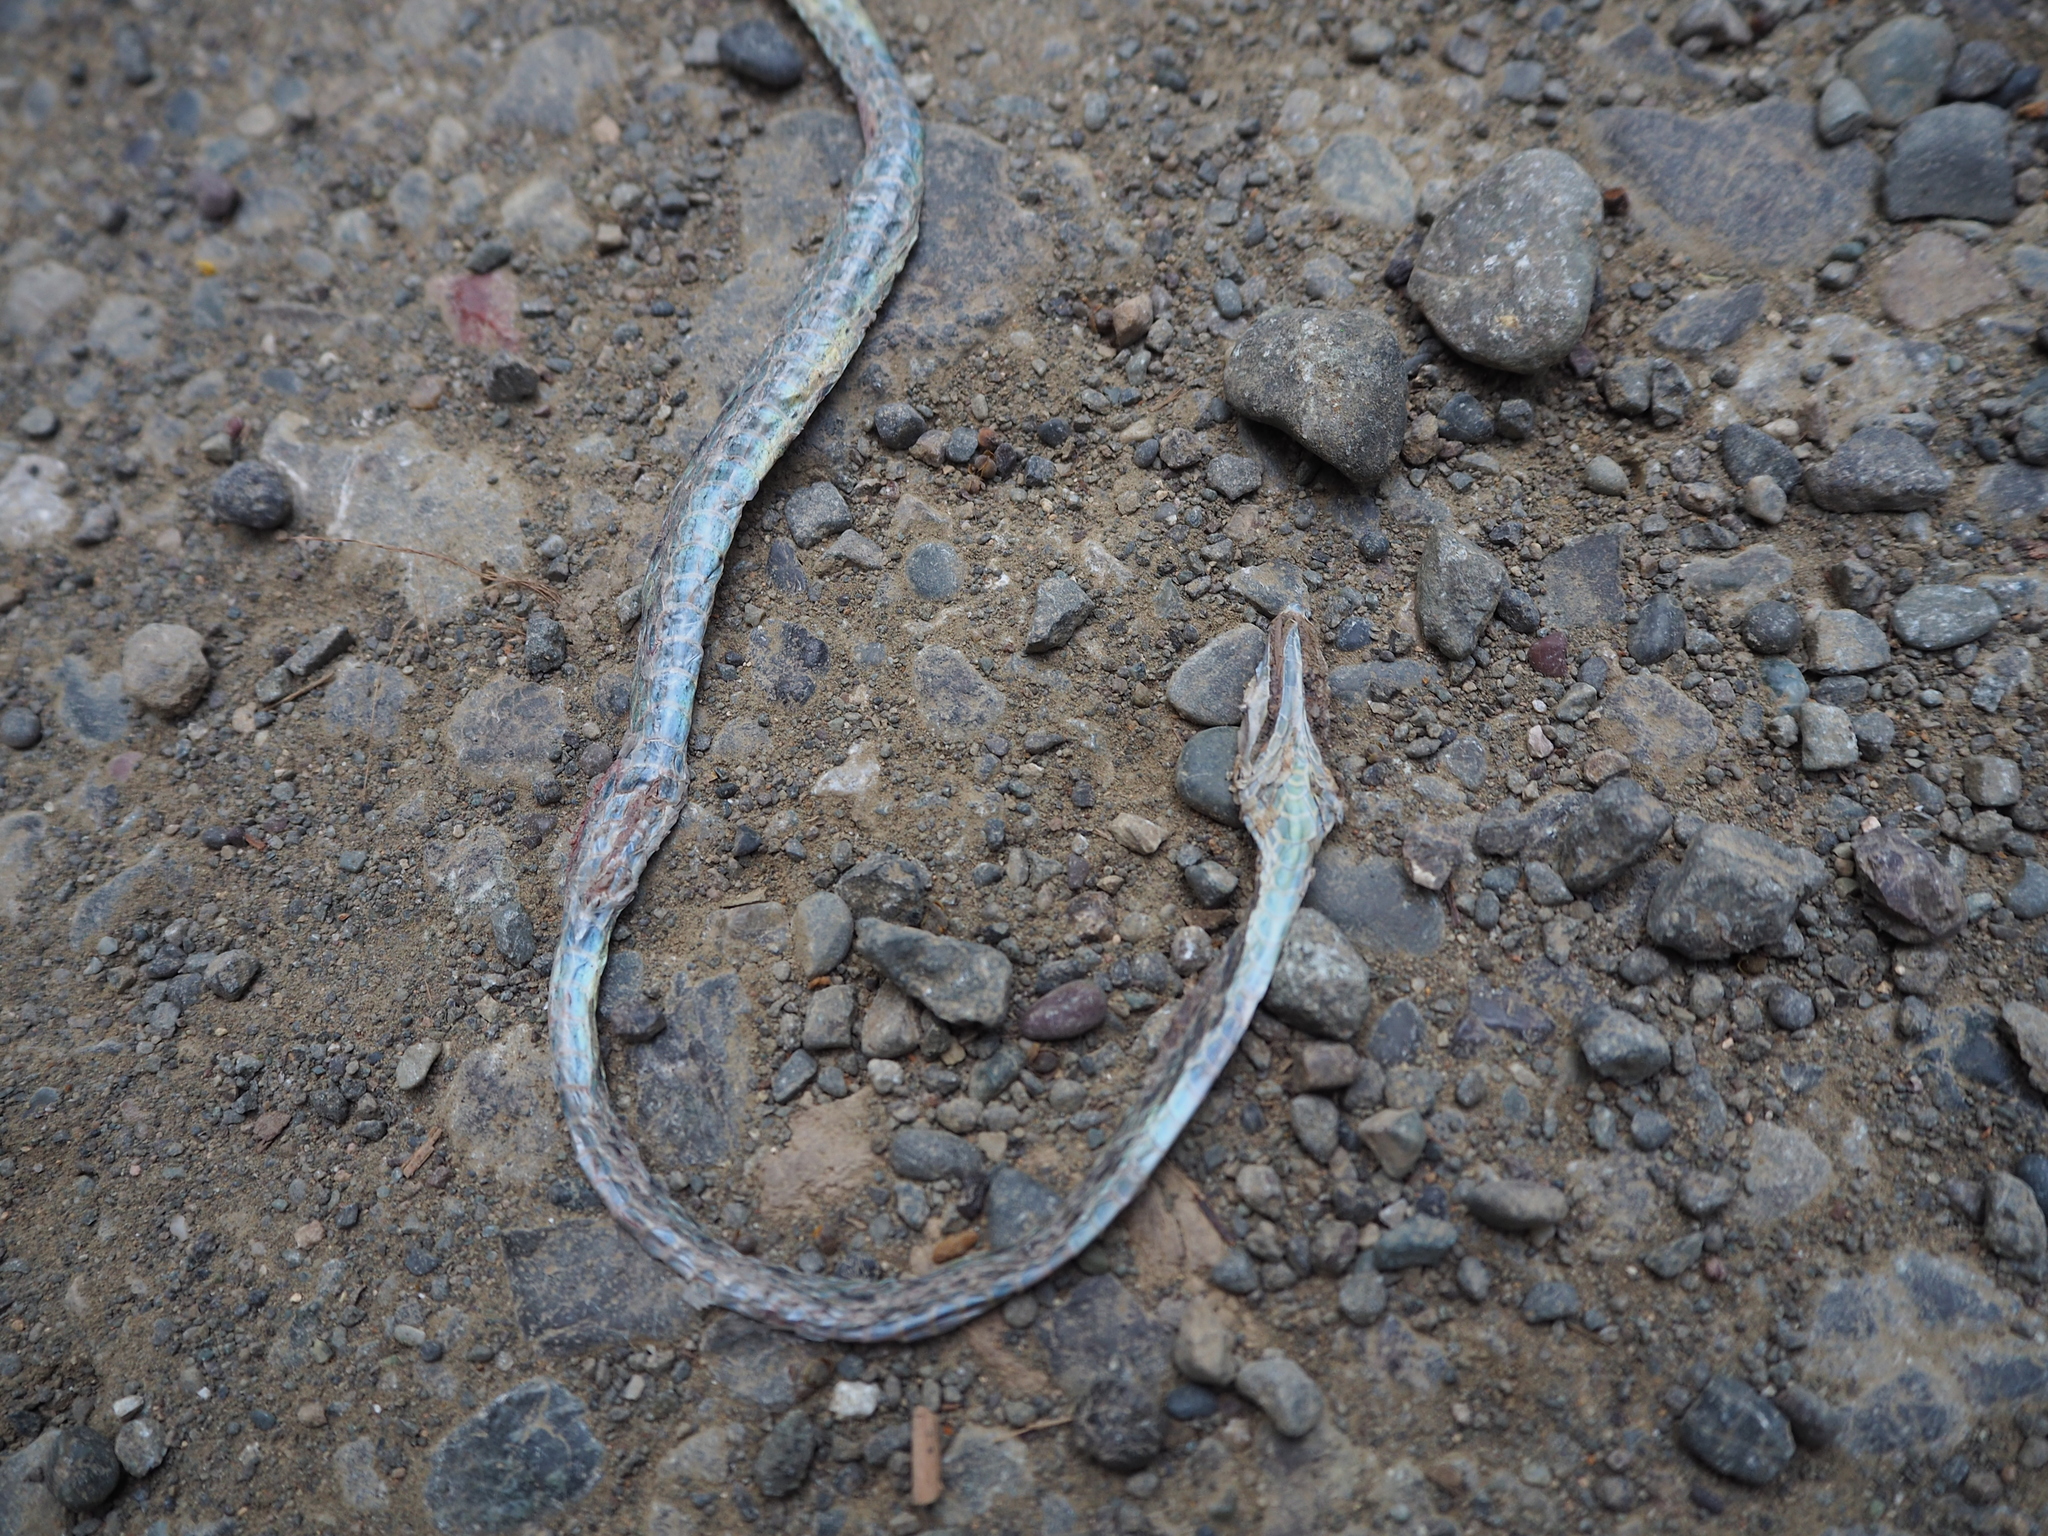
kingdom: Animalia
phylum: Chordata
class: Squamata
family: Colubridae
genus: Oxybelis
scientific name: Oxybelis koehleri
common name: Köhler’s vine snake
